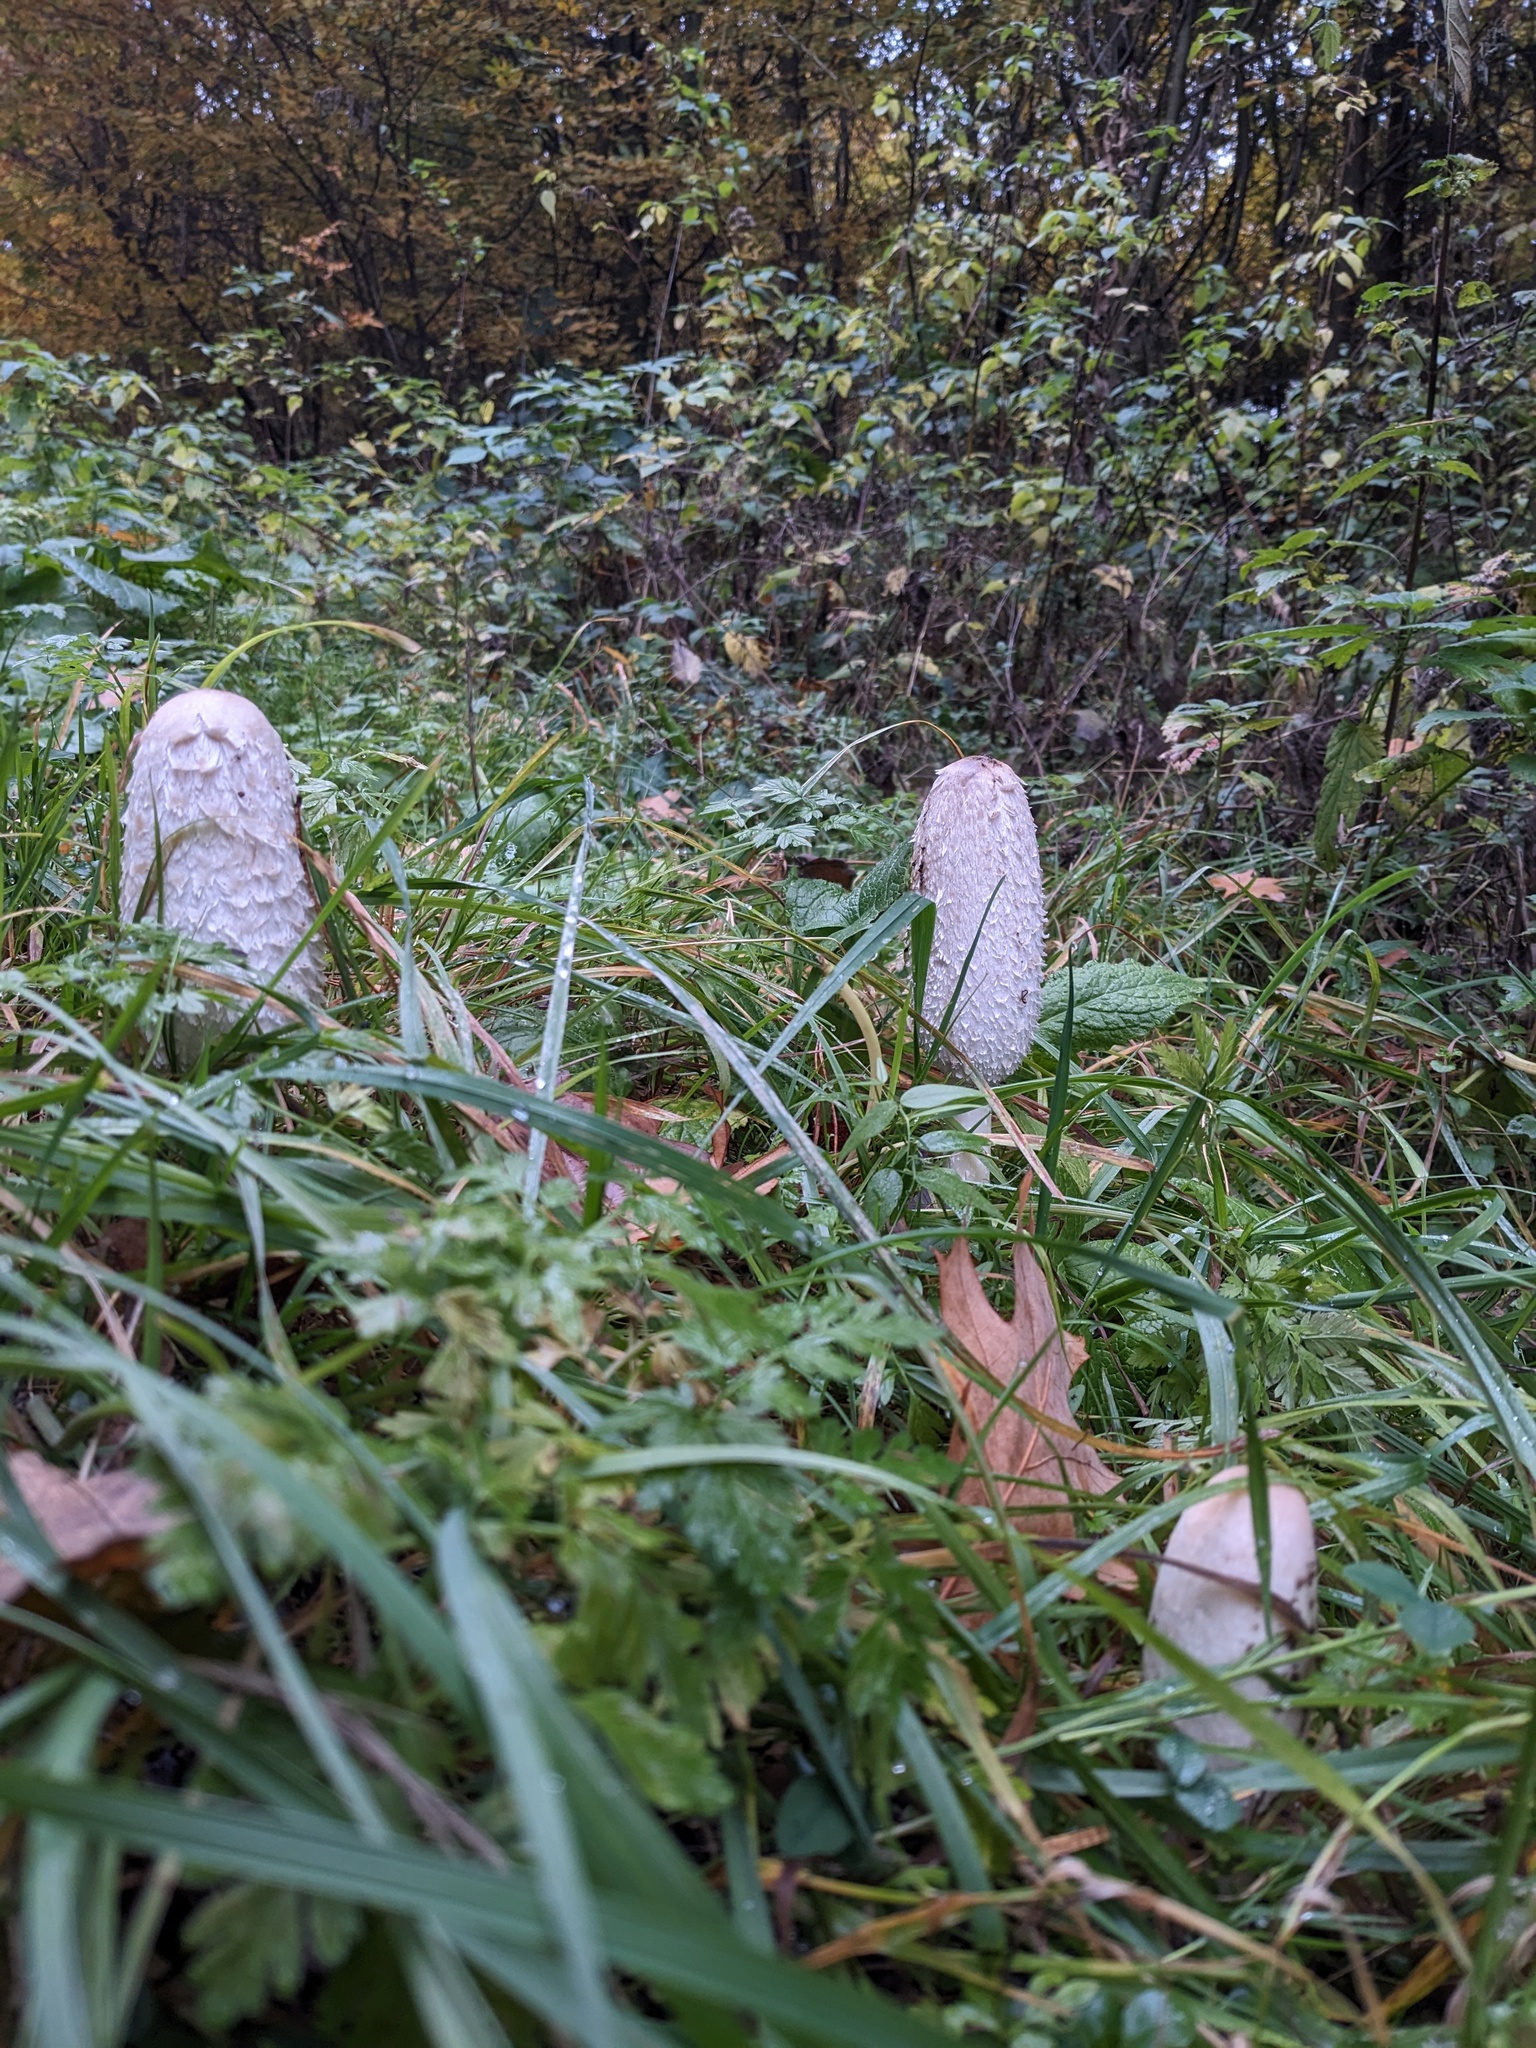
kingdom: Fungi
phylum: Basidiomycota
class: Agaricomycetes
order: Agaricales
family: Agaricaceae
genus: Coprinus
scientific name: Coprinus comatus
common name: Lawyer's wig
